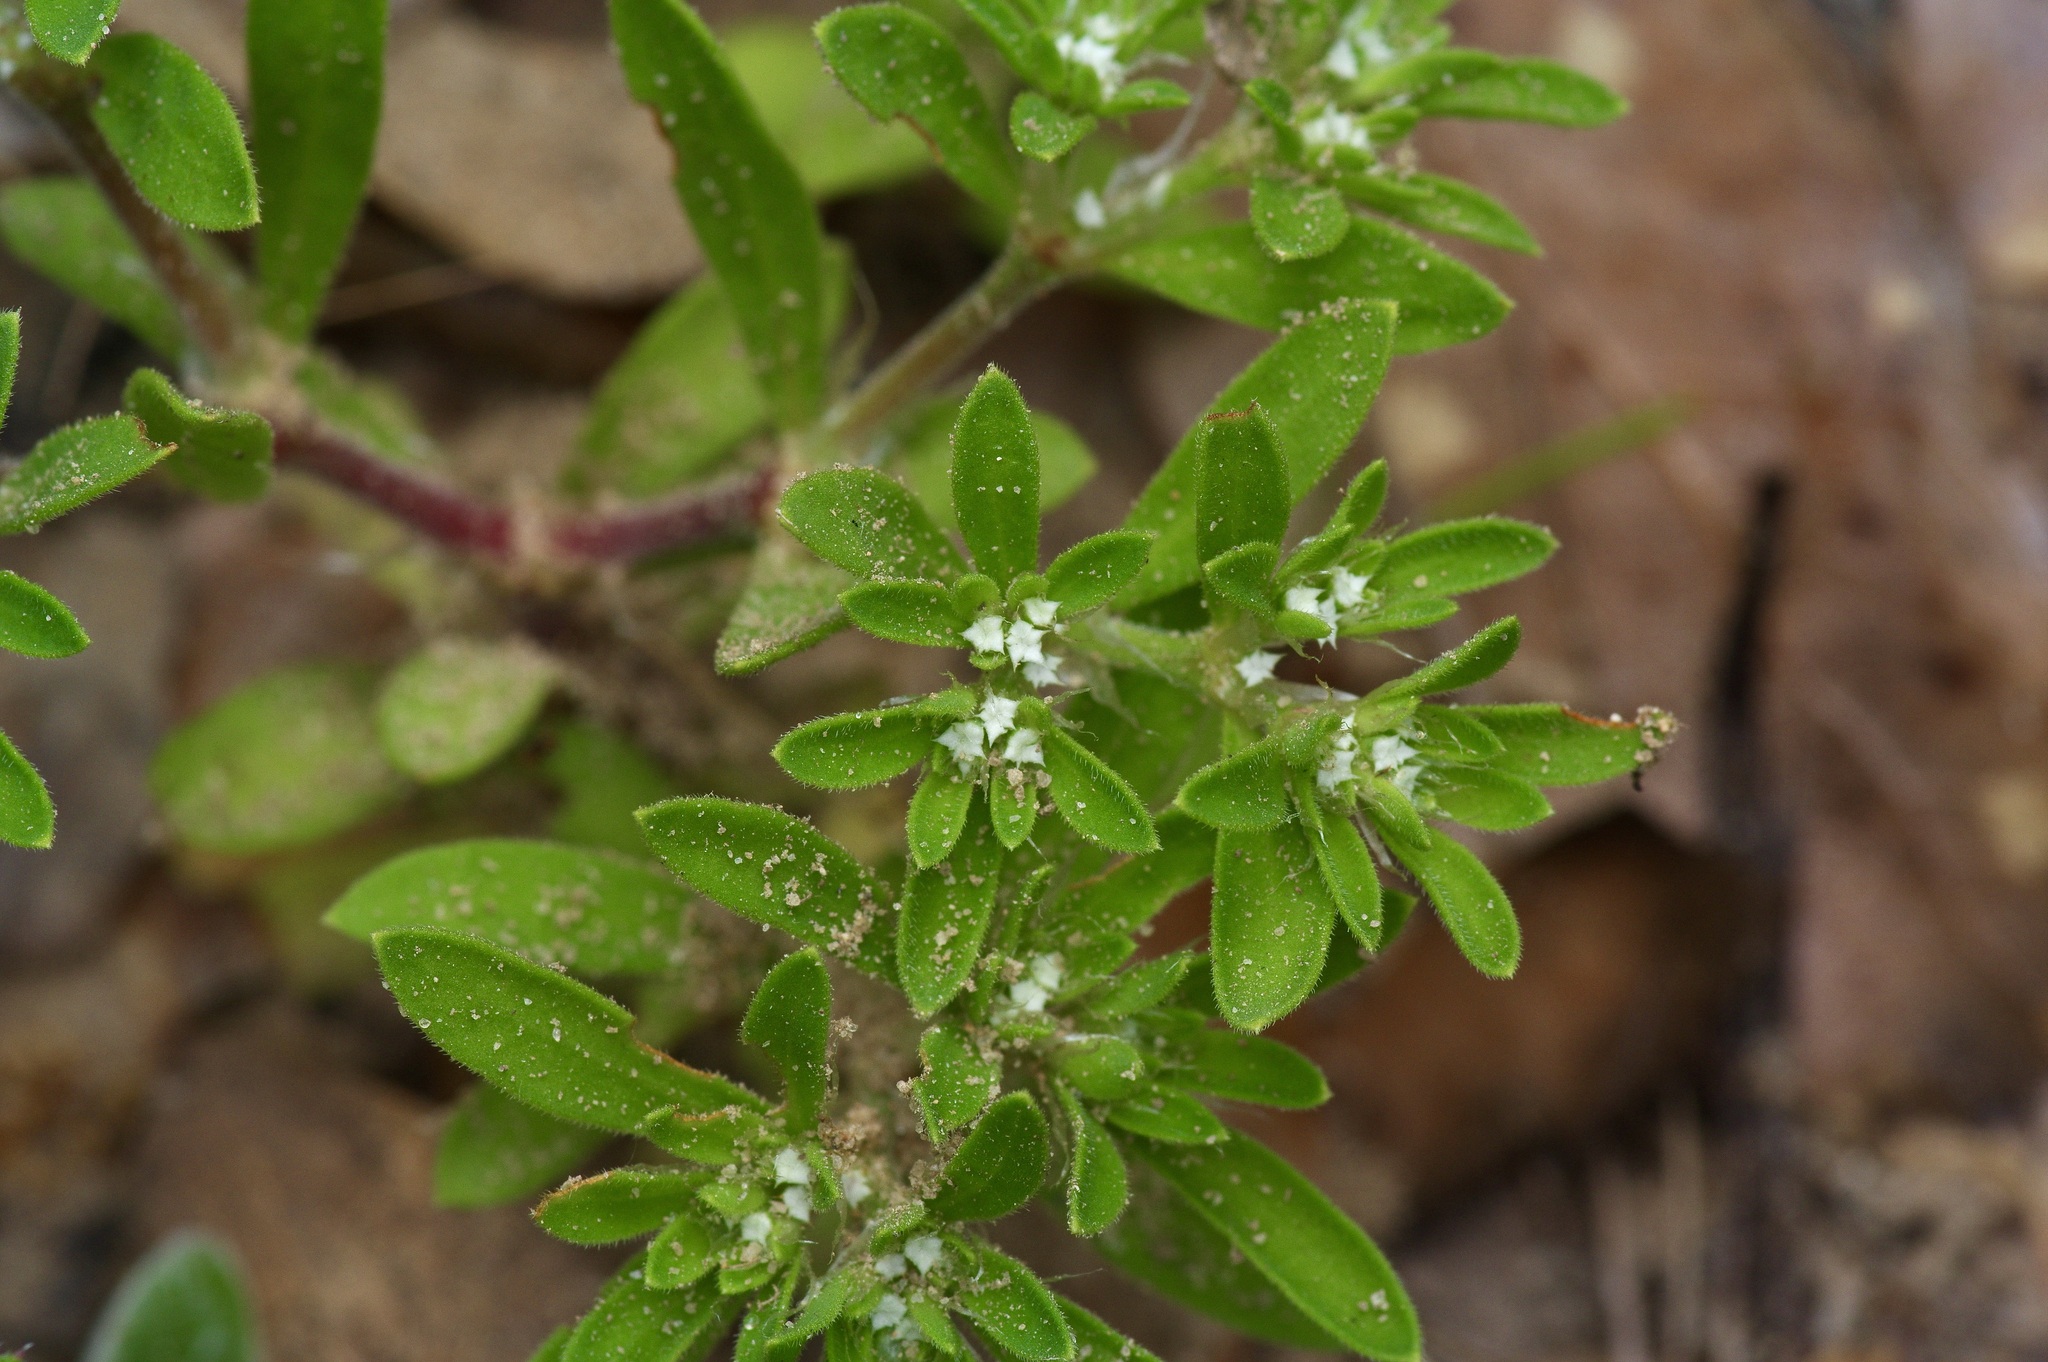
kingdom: Plantae
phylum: Tracheophyta
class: Magnoliopsida
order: Caryophyllales
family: Caryophyllaceae
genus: Paronychia
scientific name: Paronychia drummondii
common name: Drummond's nailwort
